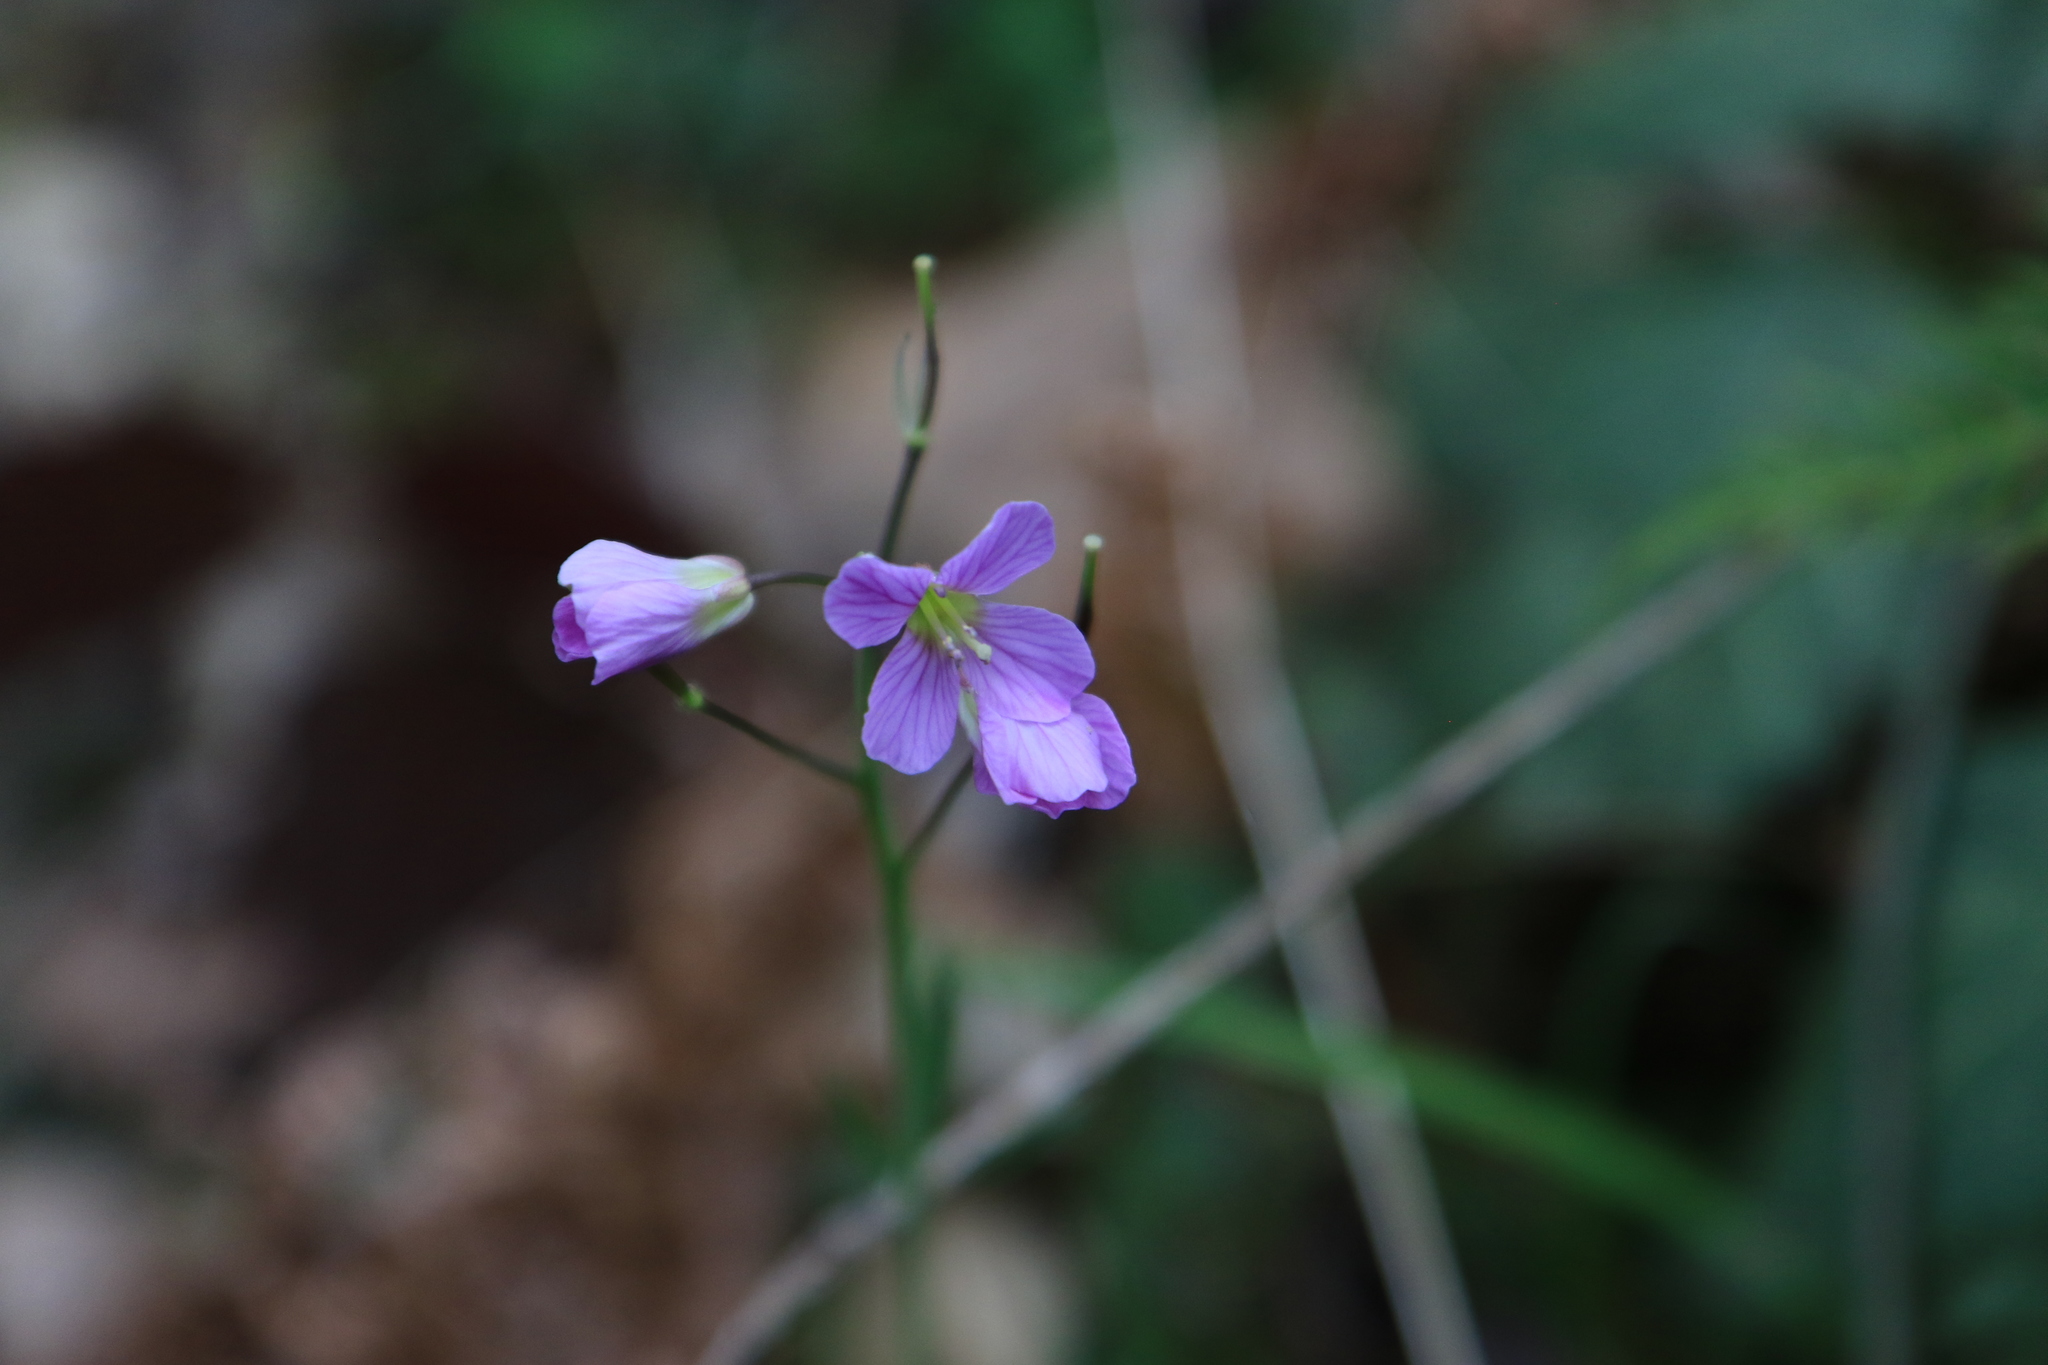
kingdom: Plantae
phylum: Tracheophyta
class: Magnoliopsida
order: Brassicales
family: Brassicaceae
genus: Cardamine
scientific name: Cardamine nuttallii
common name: Nuttall's toothwort
